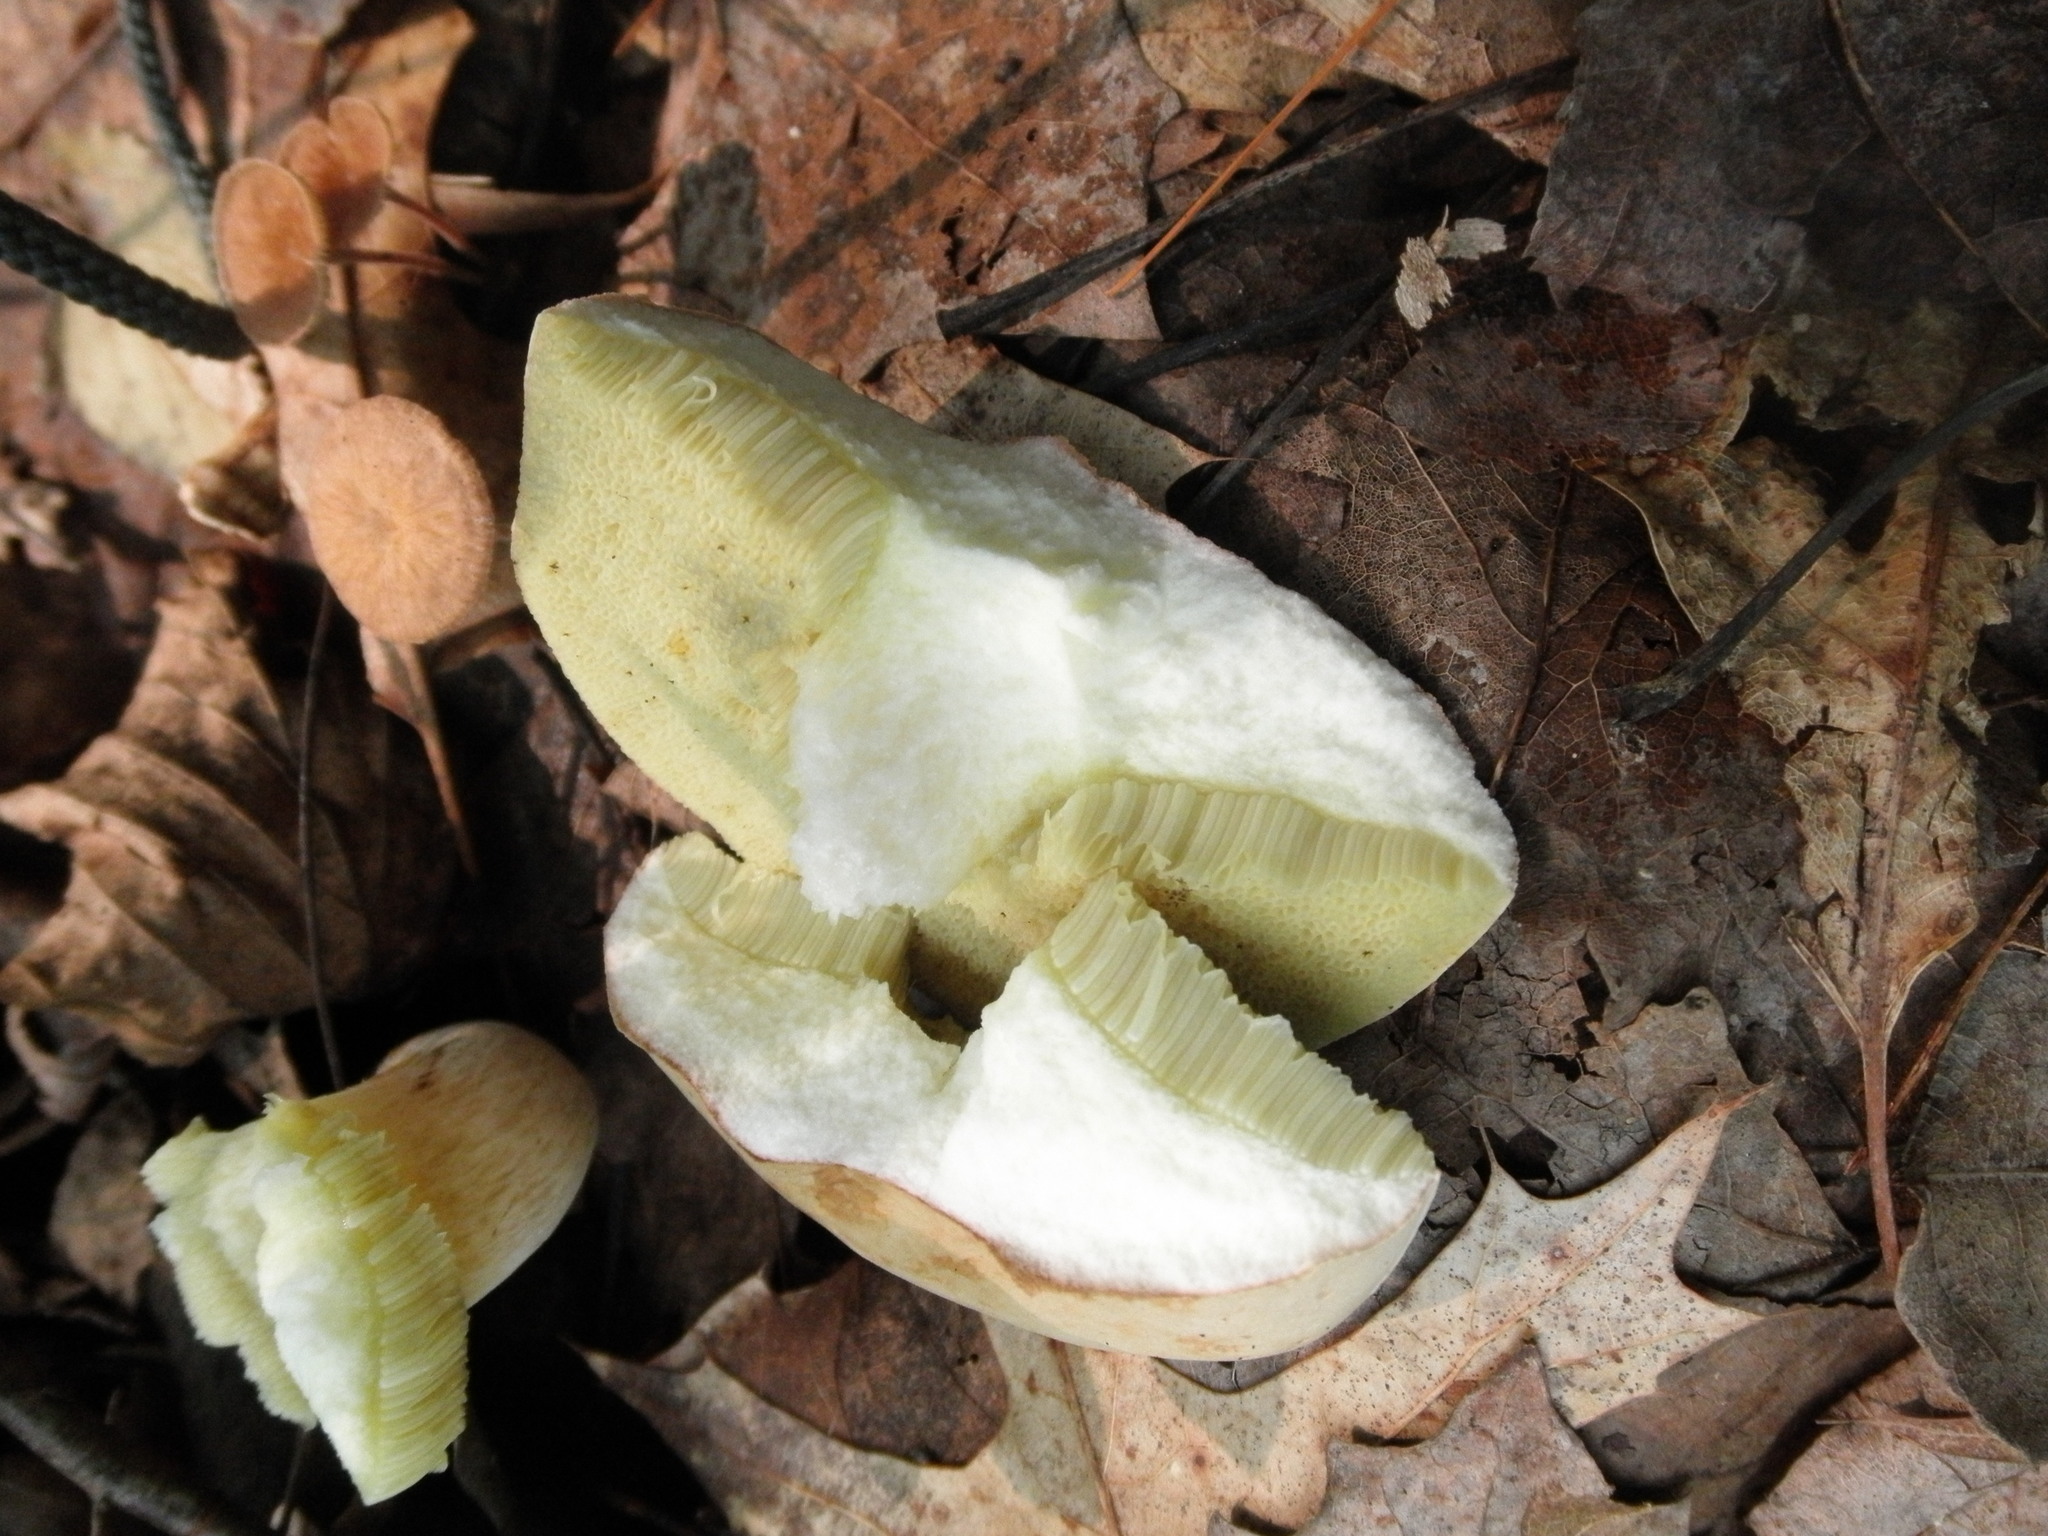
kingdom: Fungi
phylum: Basidiomycota
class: Agaricomycetes
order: Boletales
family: Boletaceae
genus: Imleria
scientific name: Imleria pallida
